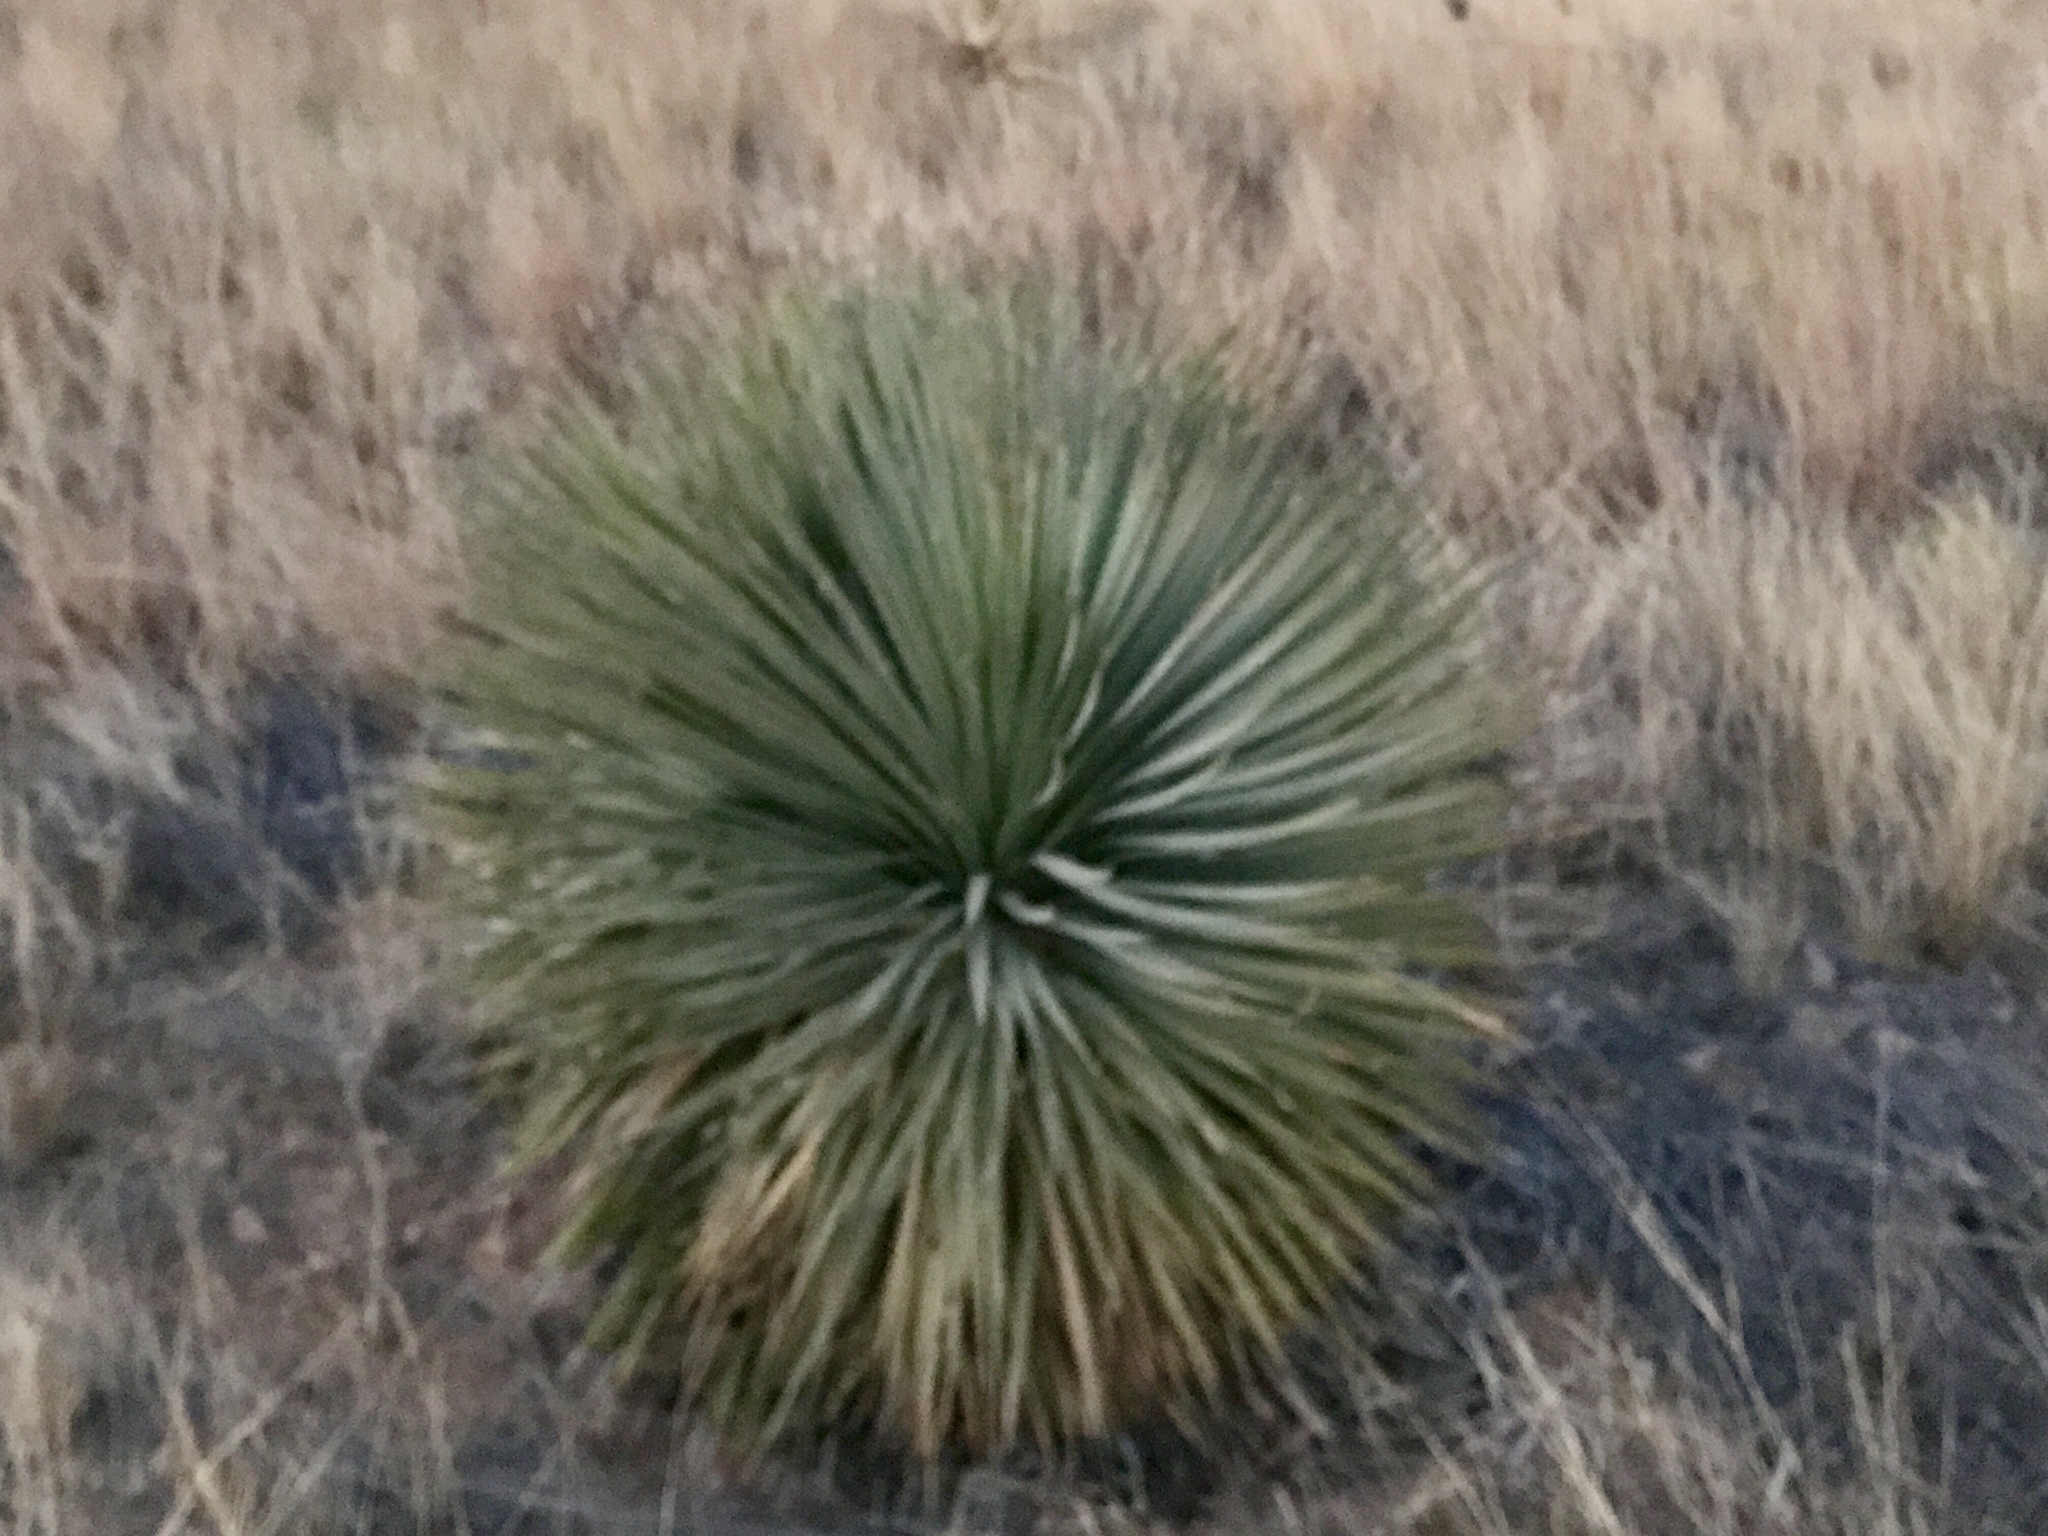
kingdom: Plantae
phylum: Tracheophyta
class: Liliopsida
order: Asparagales
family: Asparagaceae
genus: Dasylirion
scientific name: Dasylirion wheeleri
